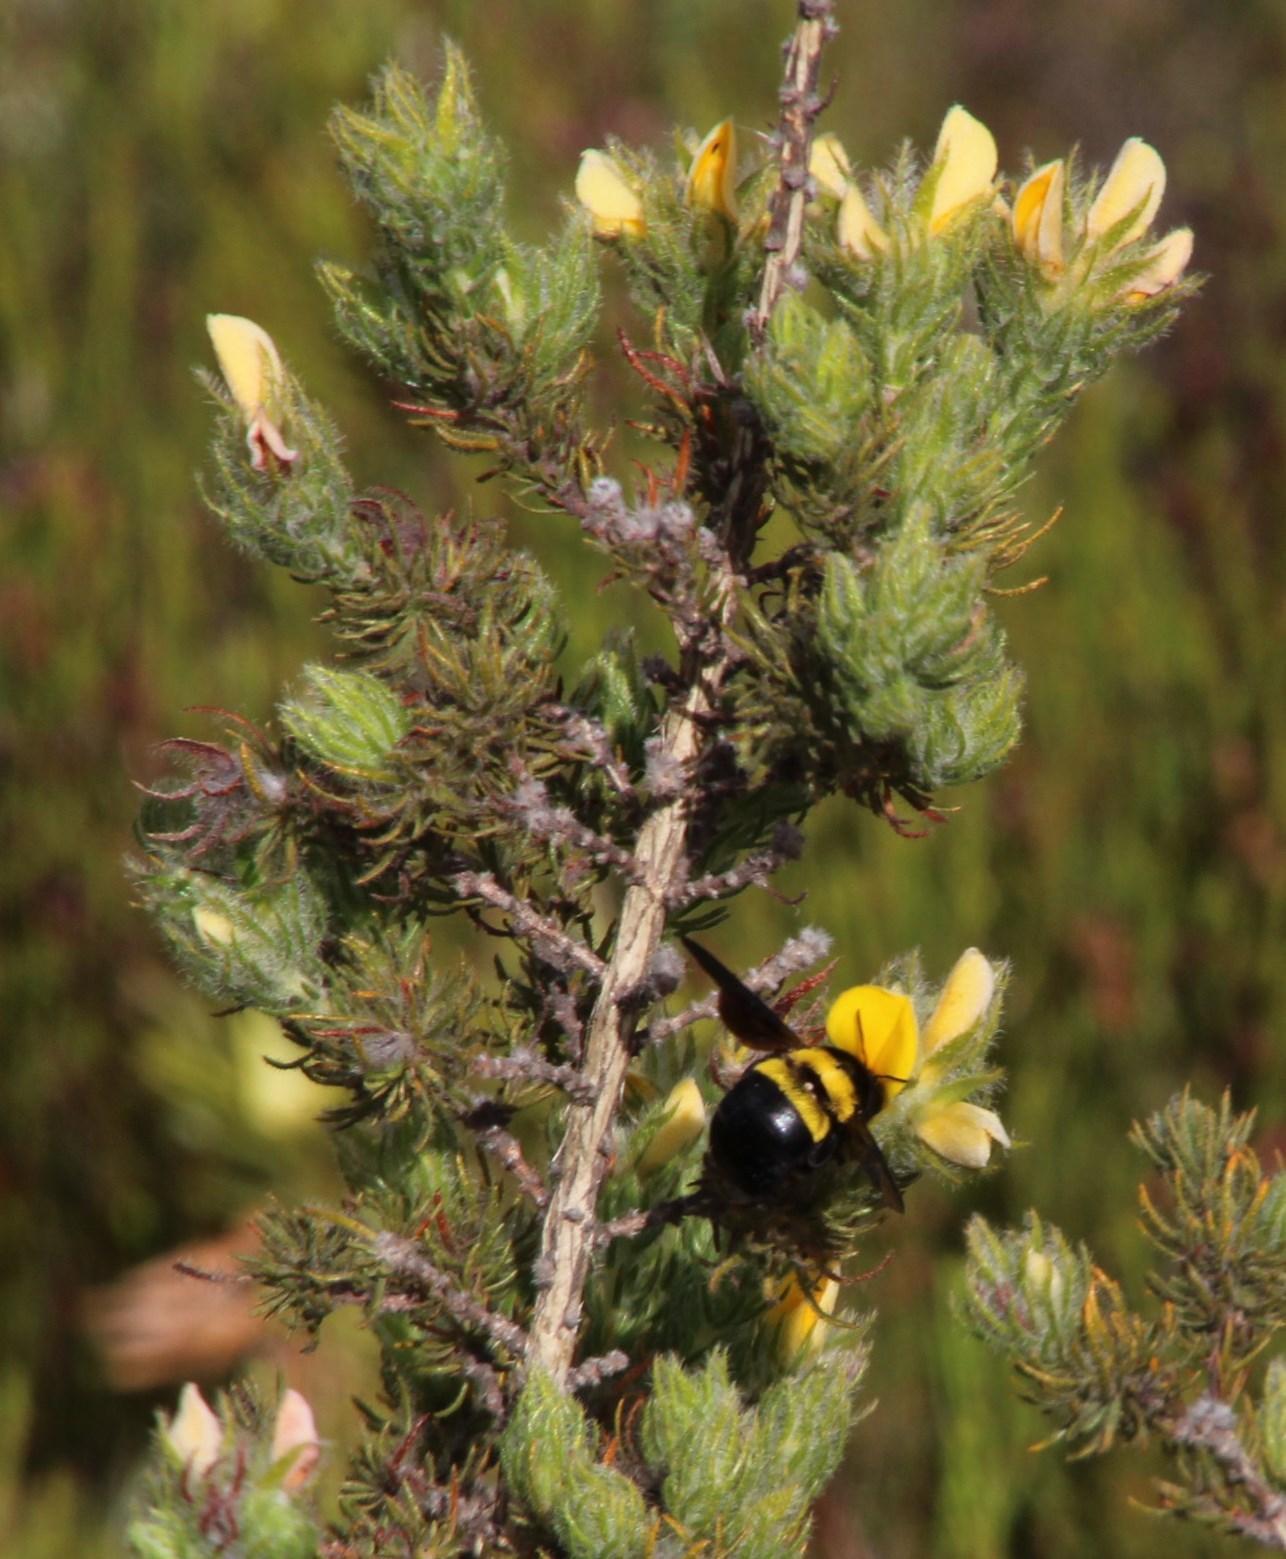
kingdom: Animalia
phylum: Arthropoda
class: Insecta
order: Hymenoptera
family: Apidae
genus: Xylocopa
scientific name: Xylocopa caffra
